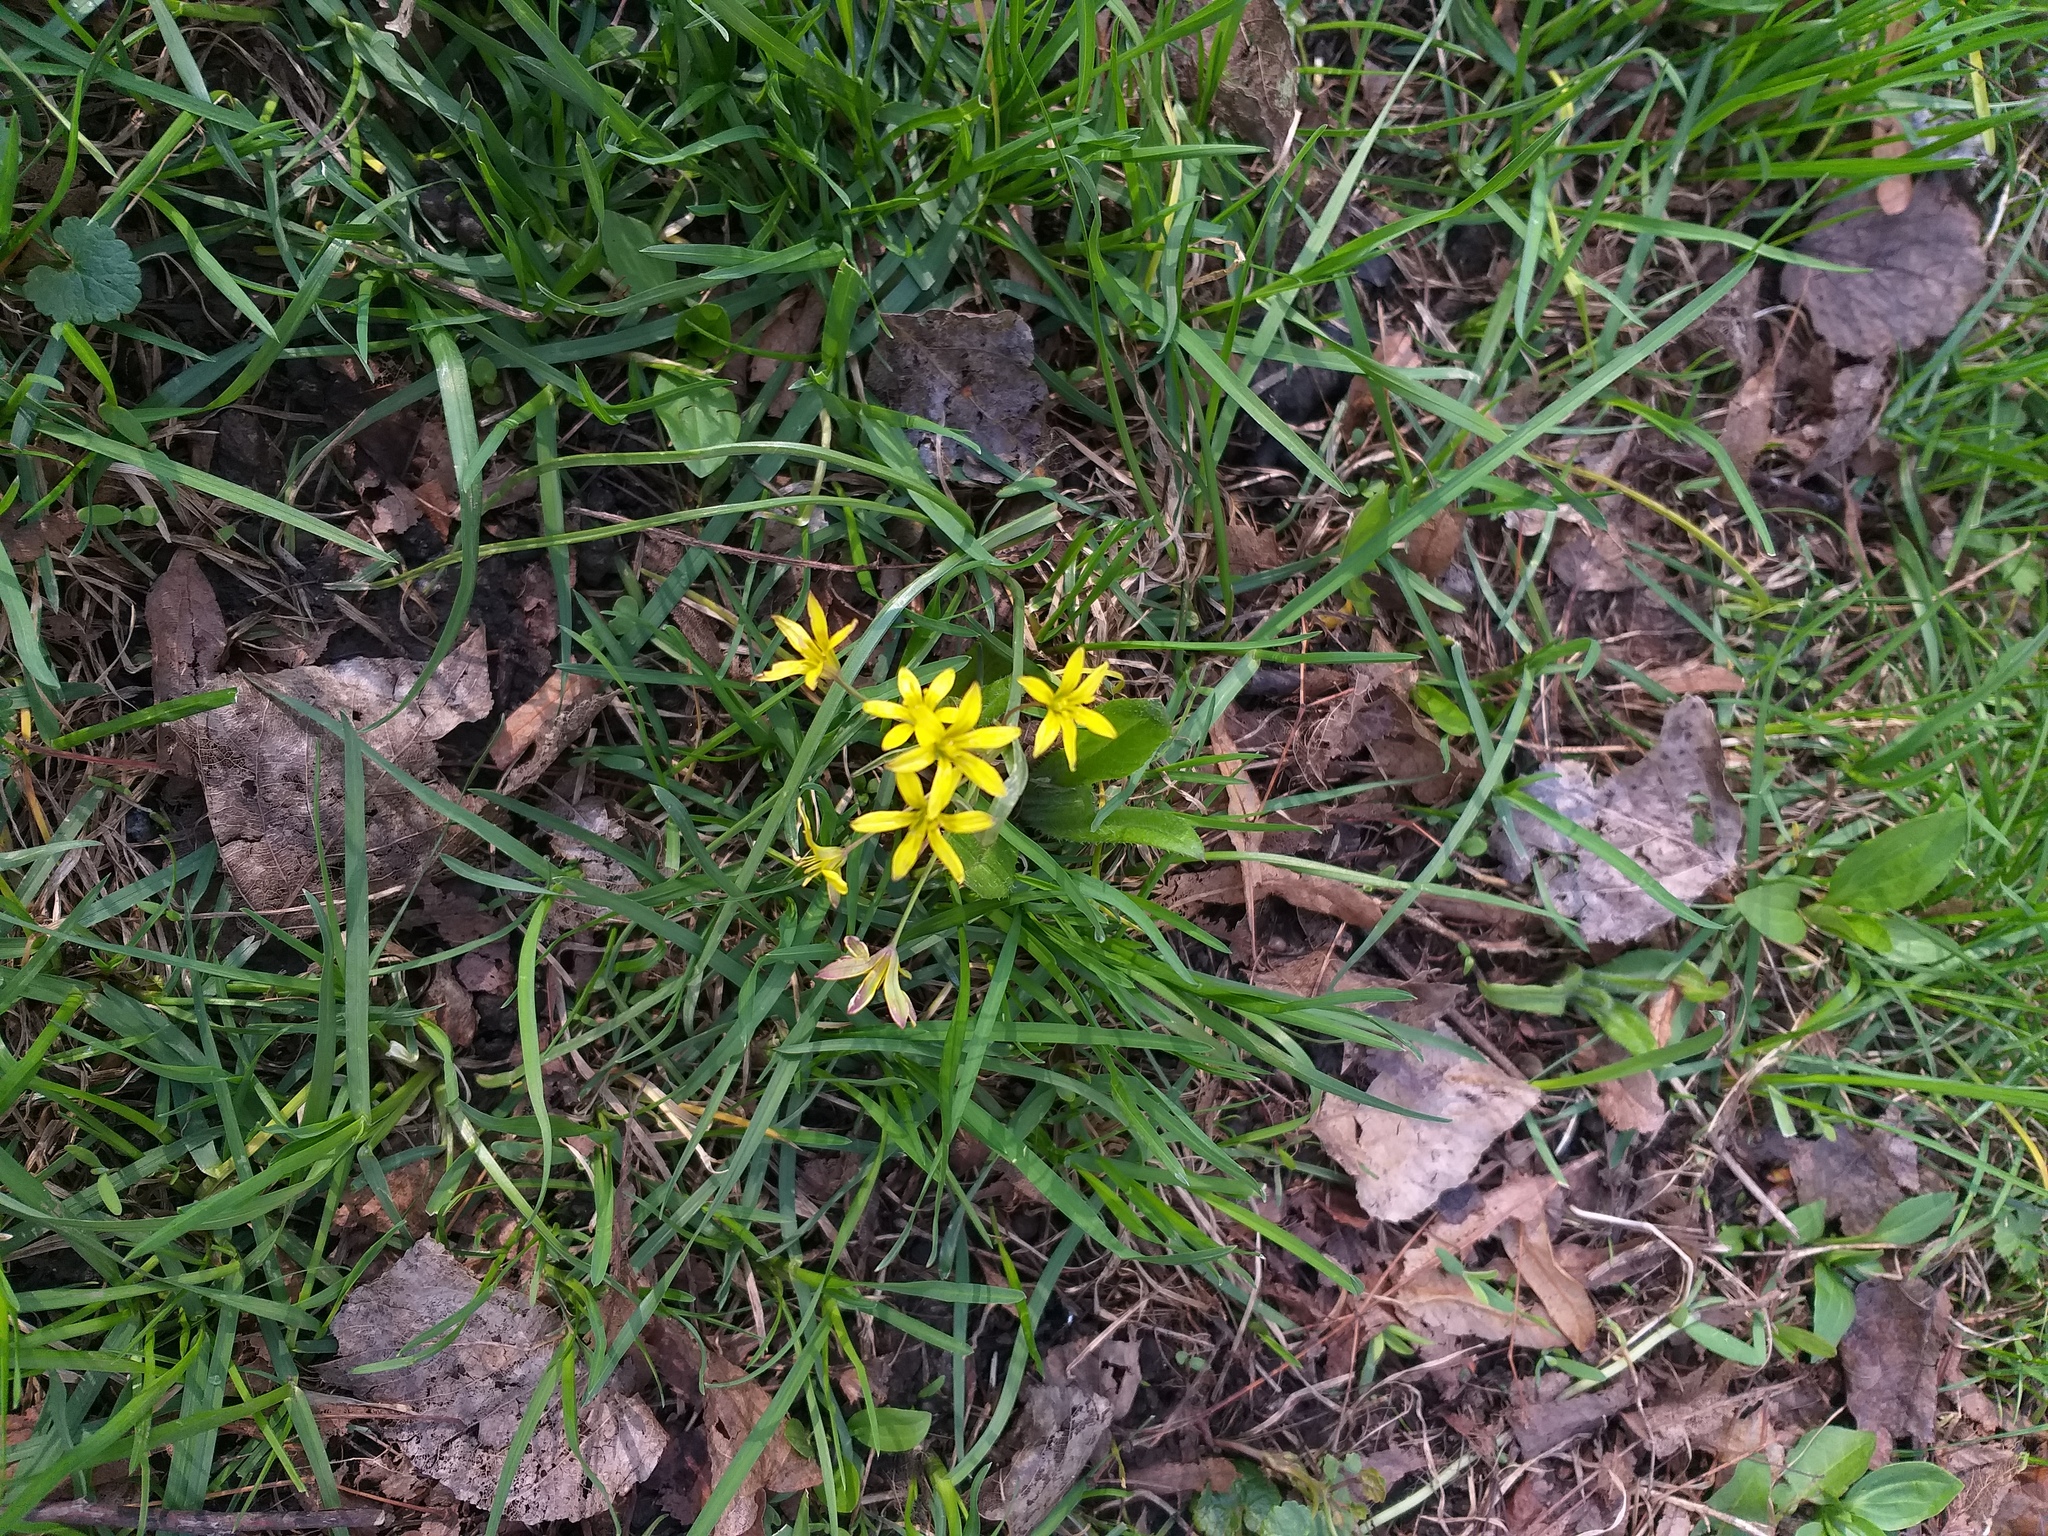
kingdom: Plantae
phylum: Tracheophyta
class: Liliopsida
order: Liliales
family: Liliaceae
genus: Gagea
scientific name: Gagea fragifera
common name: Lily
